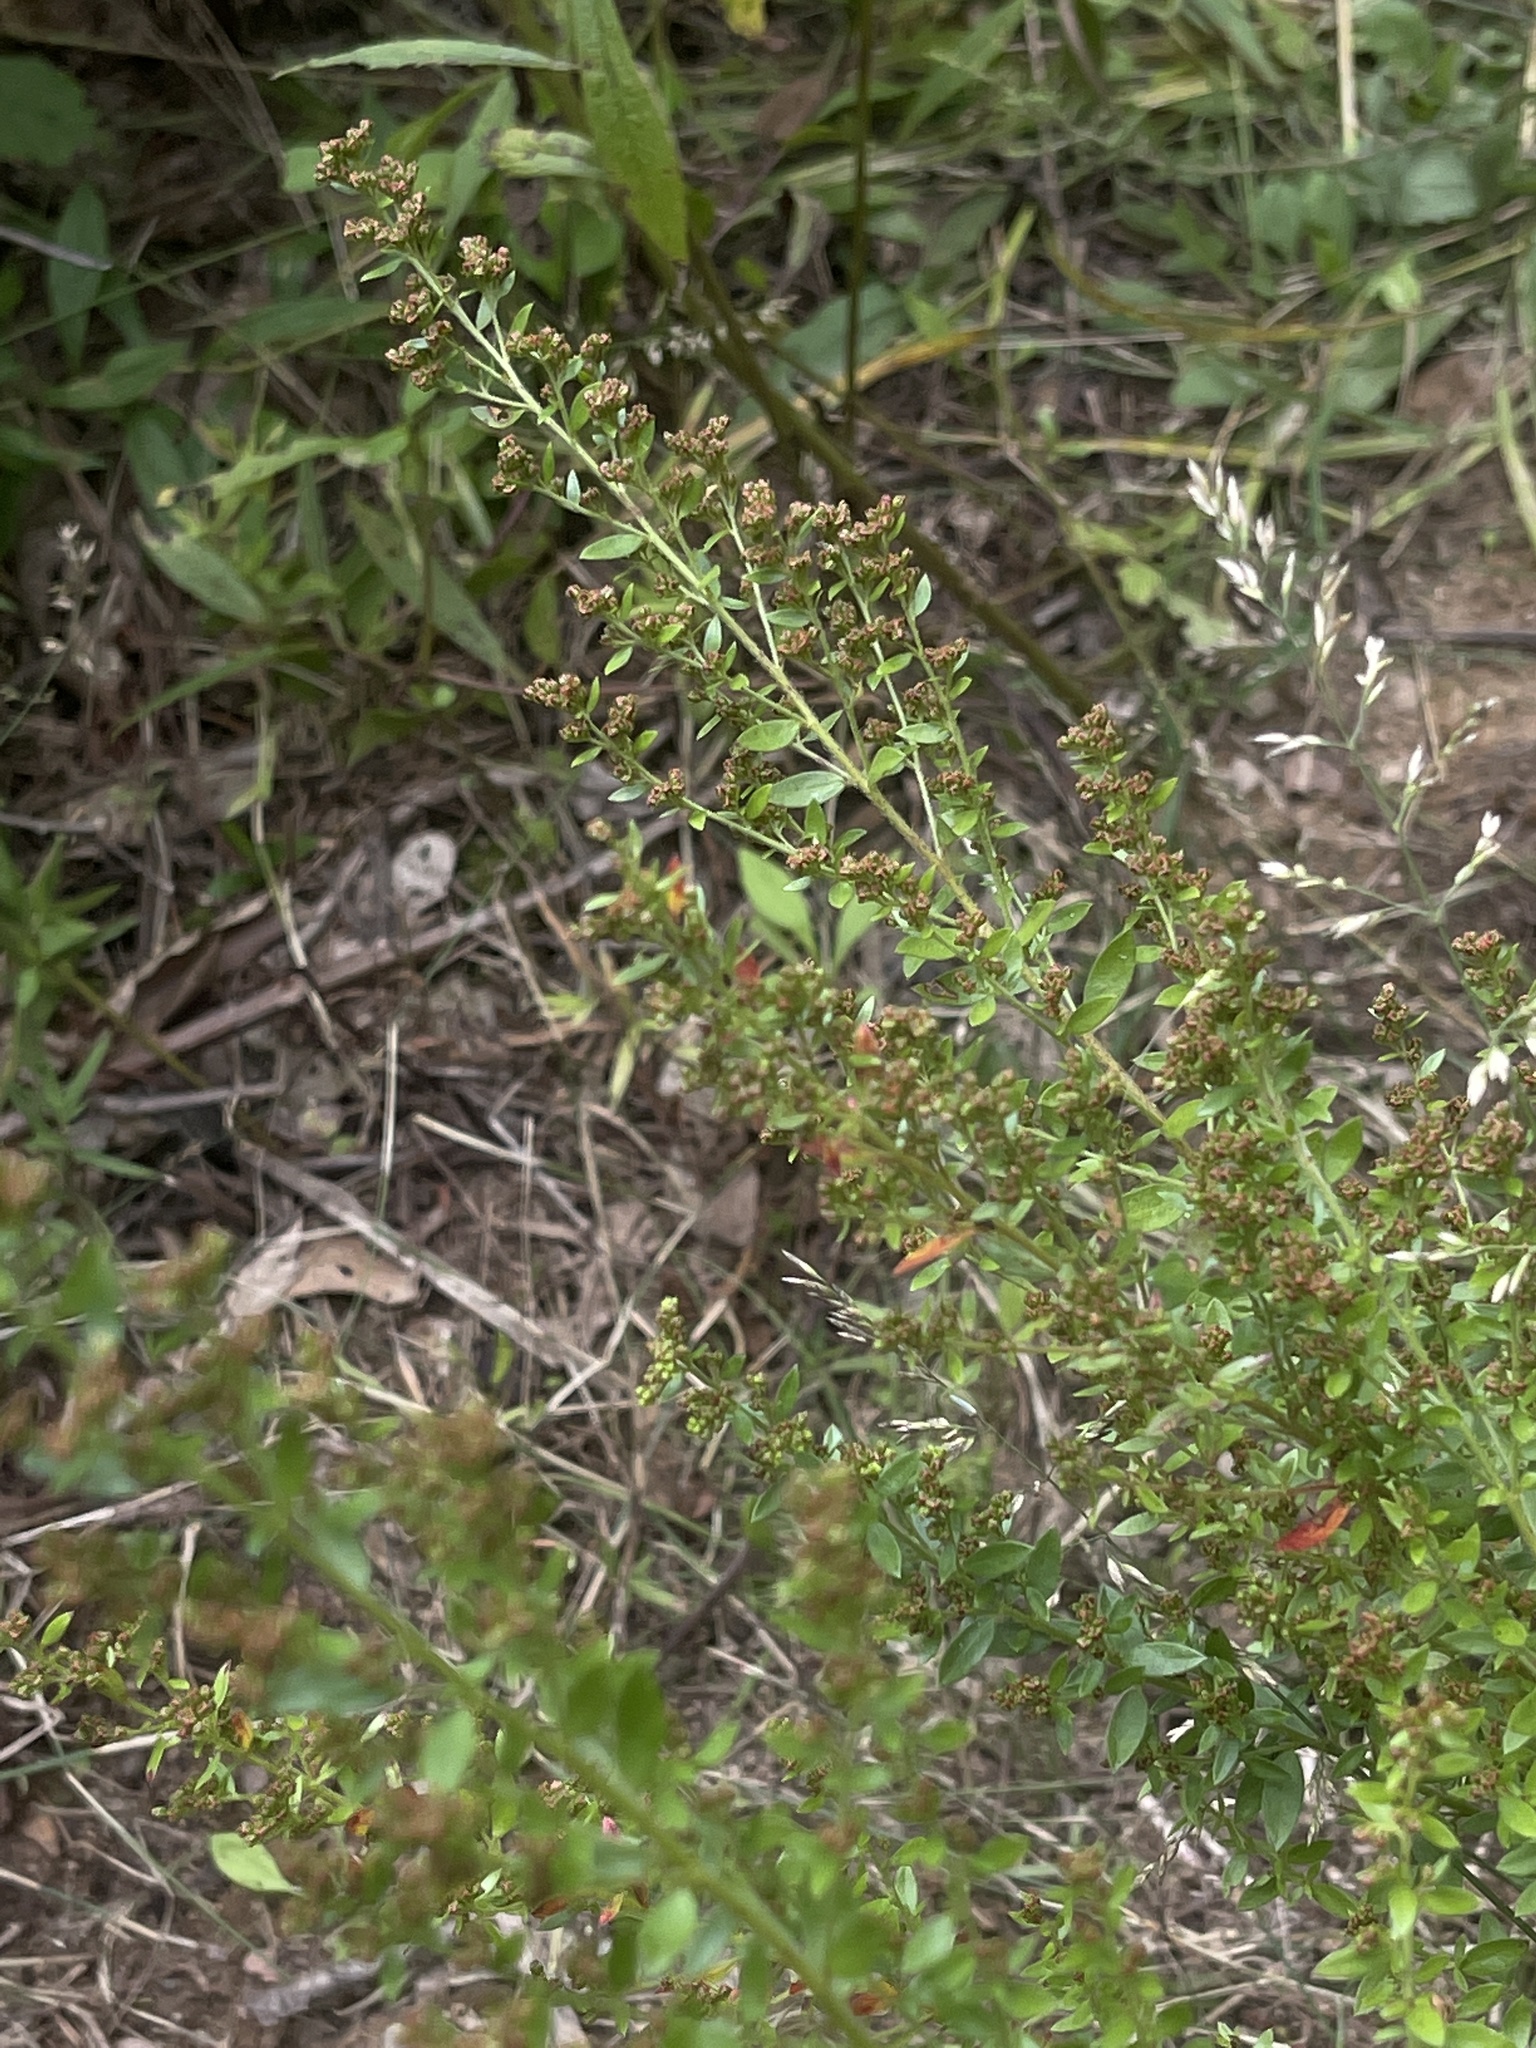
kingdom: Plantae
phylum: Tracheophyta
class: Magnoliopsida
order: Malvales
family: Cistaceae
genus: Lechea
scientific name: Lechea mucronata
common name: Hairy pinweed
